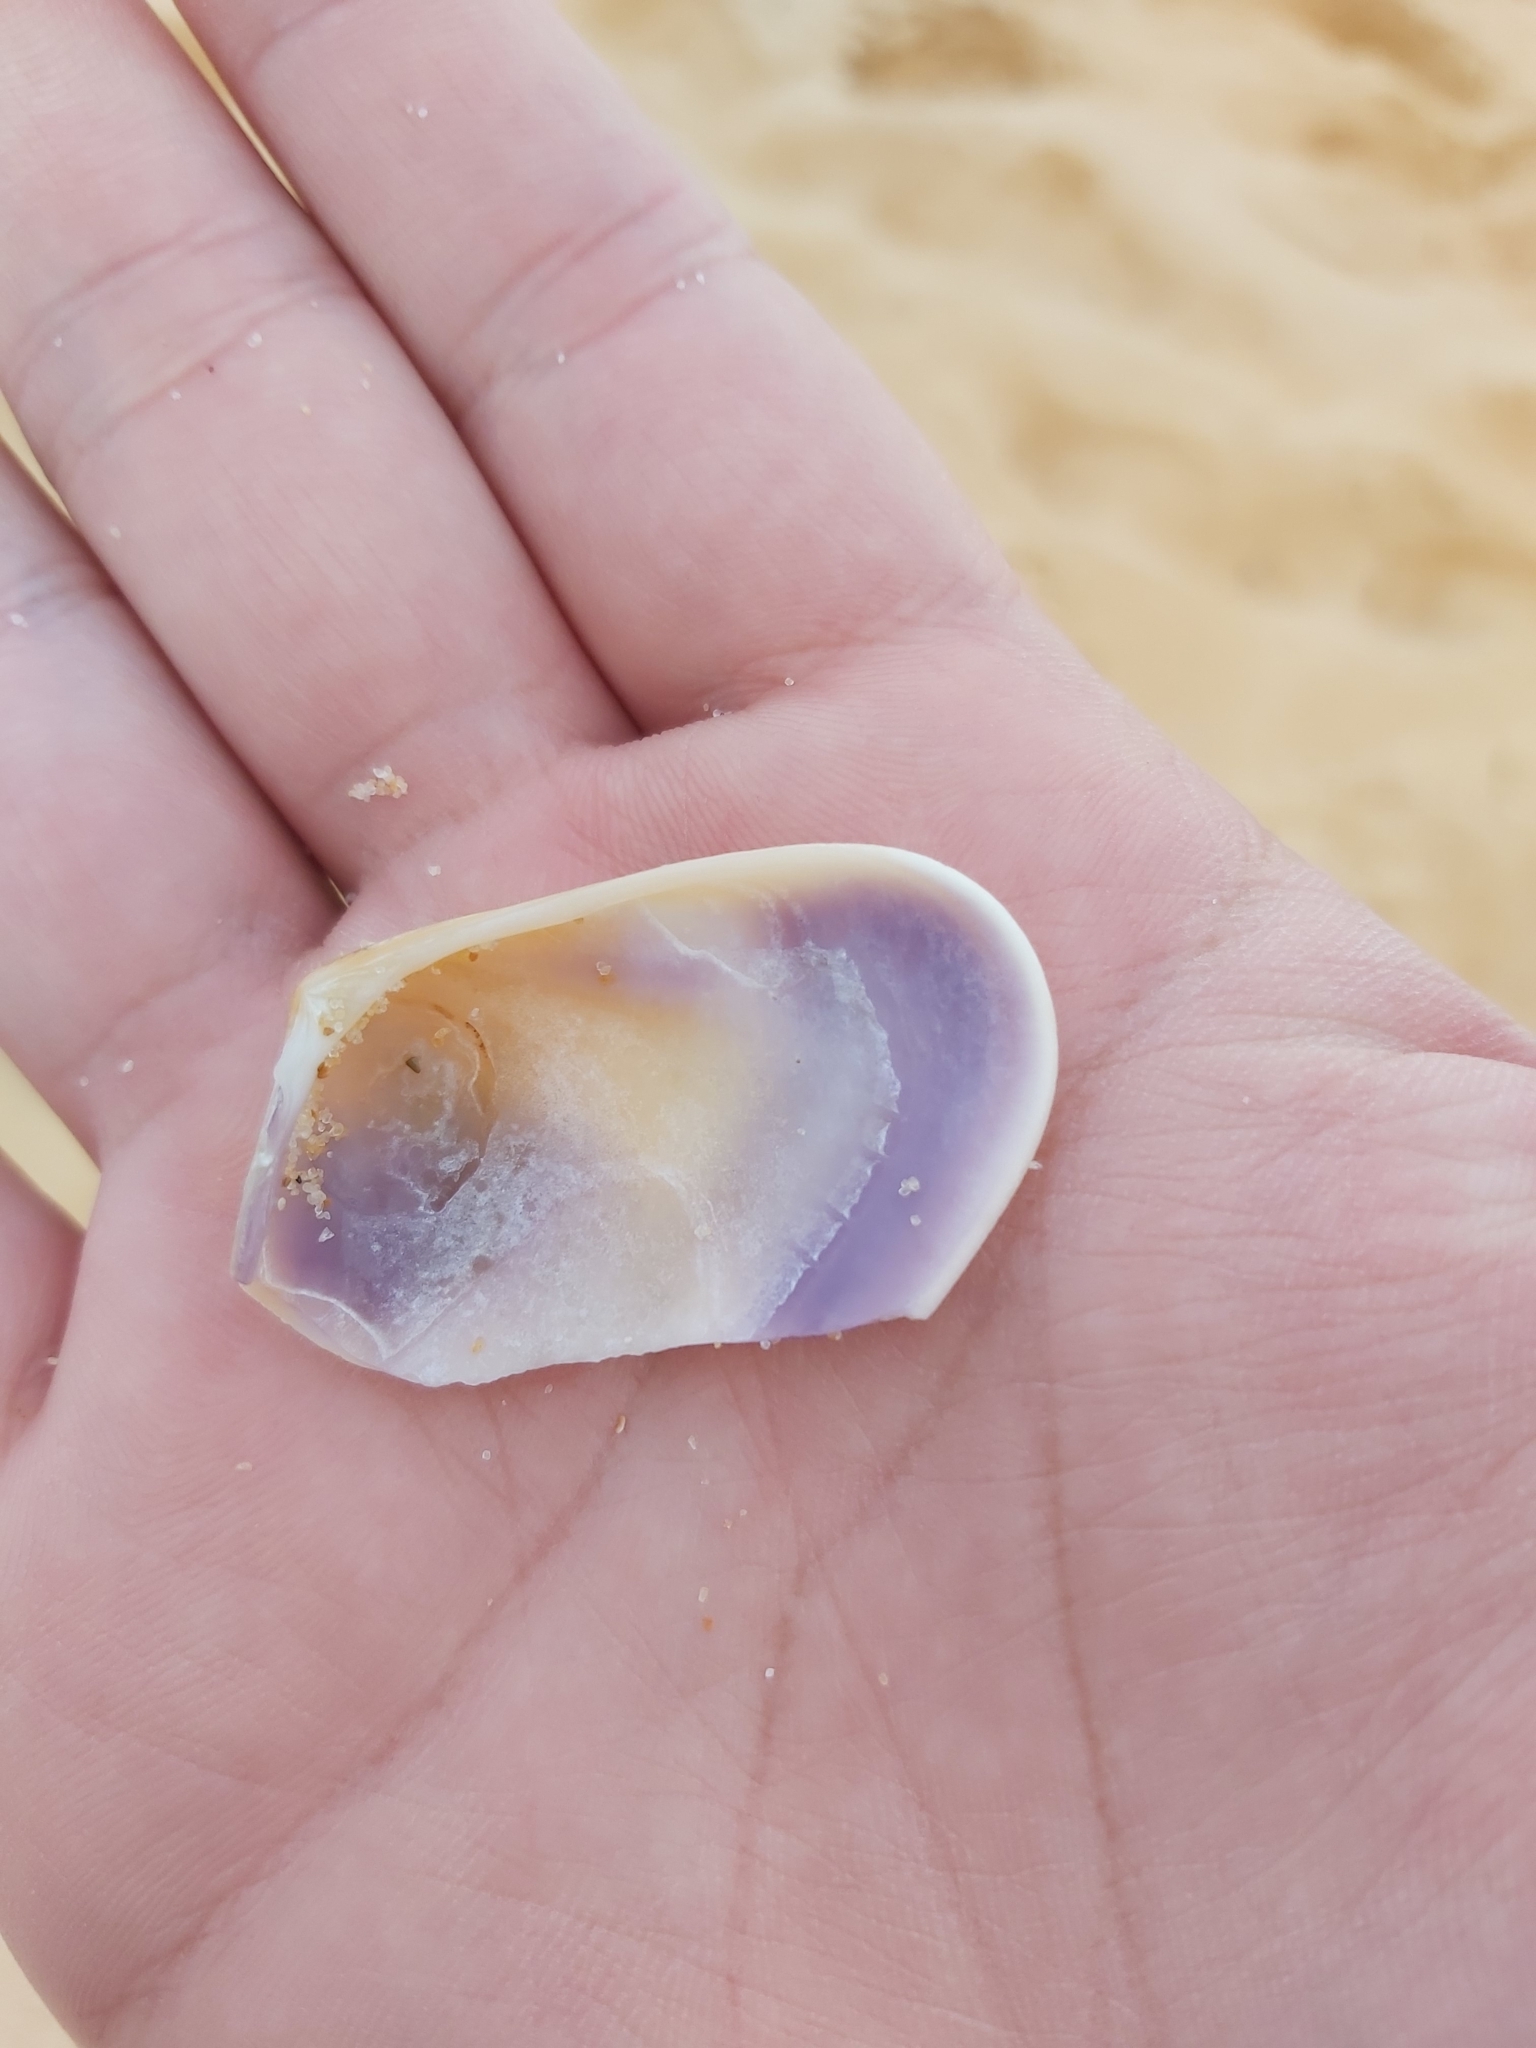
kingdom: Animalia
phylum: Mollusca
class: Bivalvia
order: Cardiida
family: Donacidae
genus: Latona
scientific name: Latona deltoides
